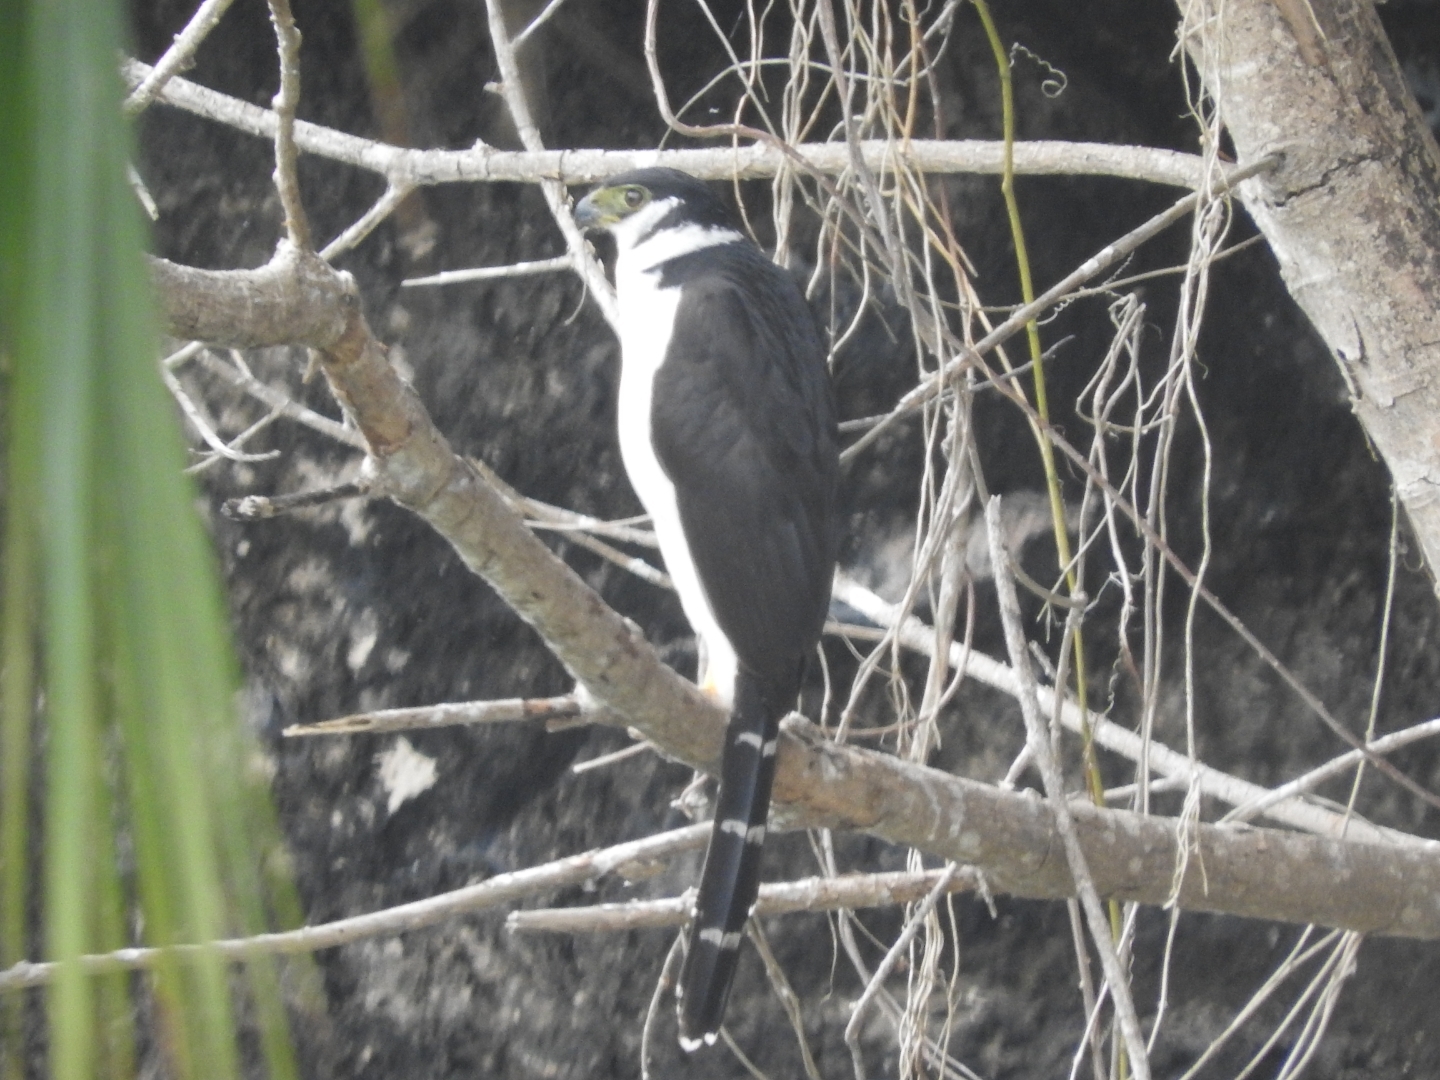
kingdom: Animalia
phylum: Chordata
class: Aves
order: Falconiformes
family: Falconidae
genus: Micrastur
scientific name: Micrastur semitorquatus
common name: Collared forest-falcon
